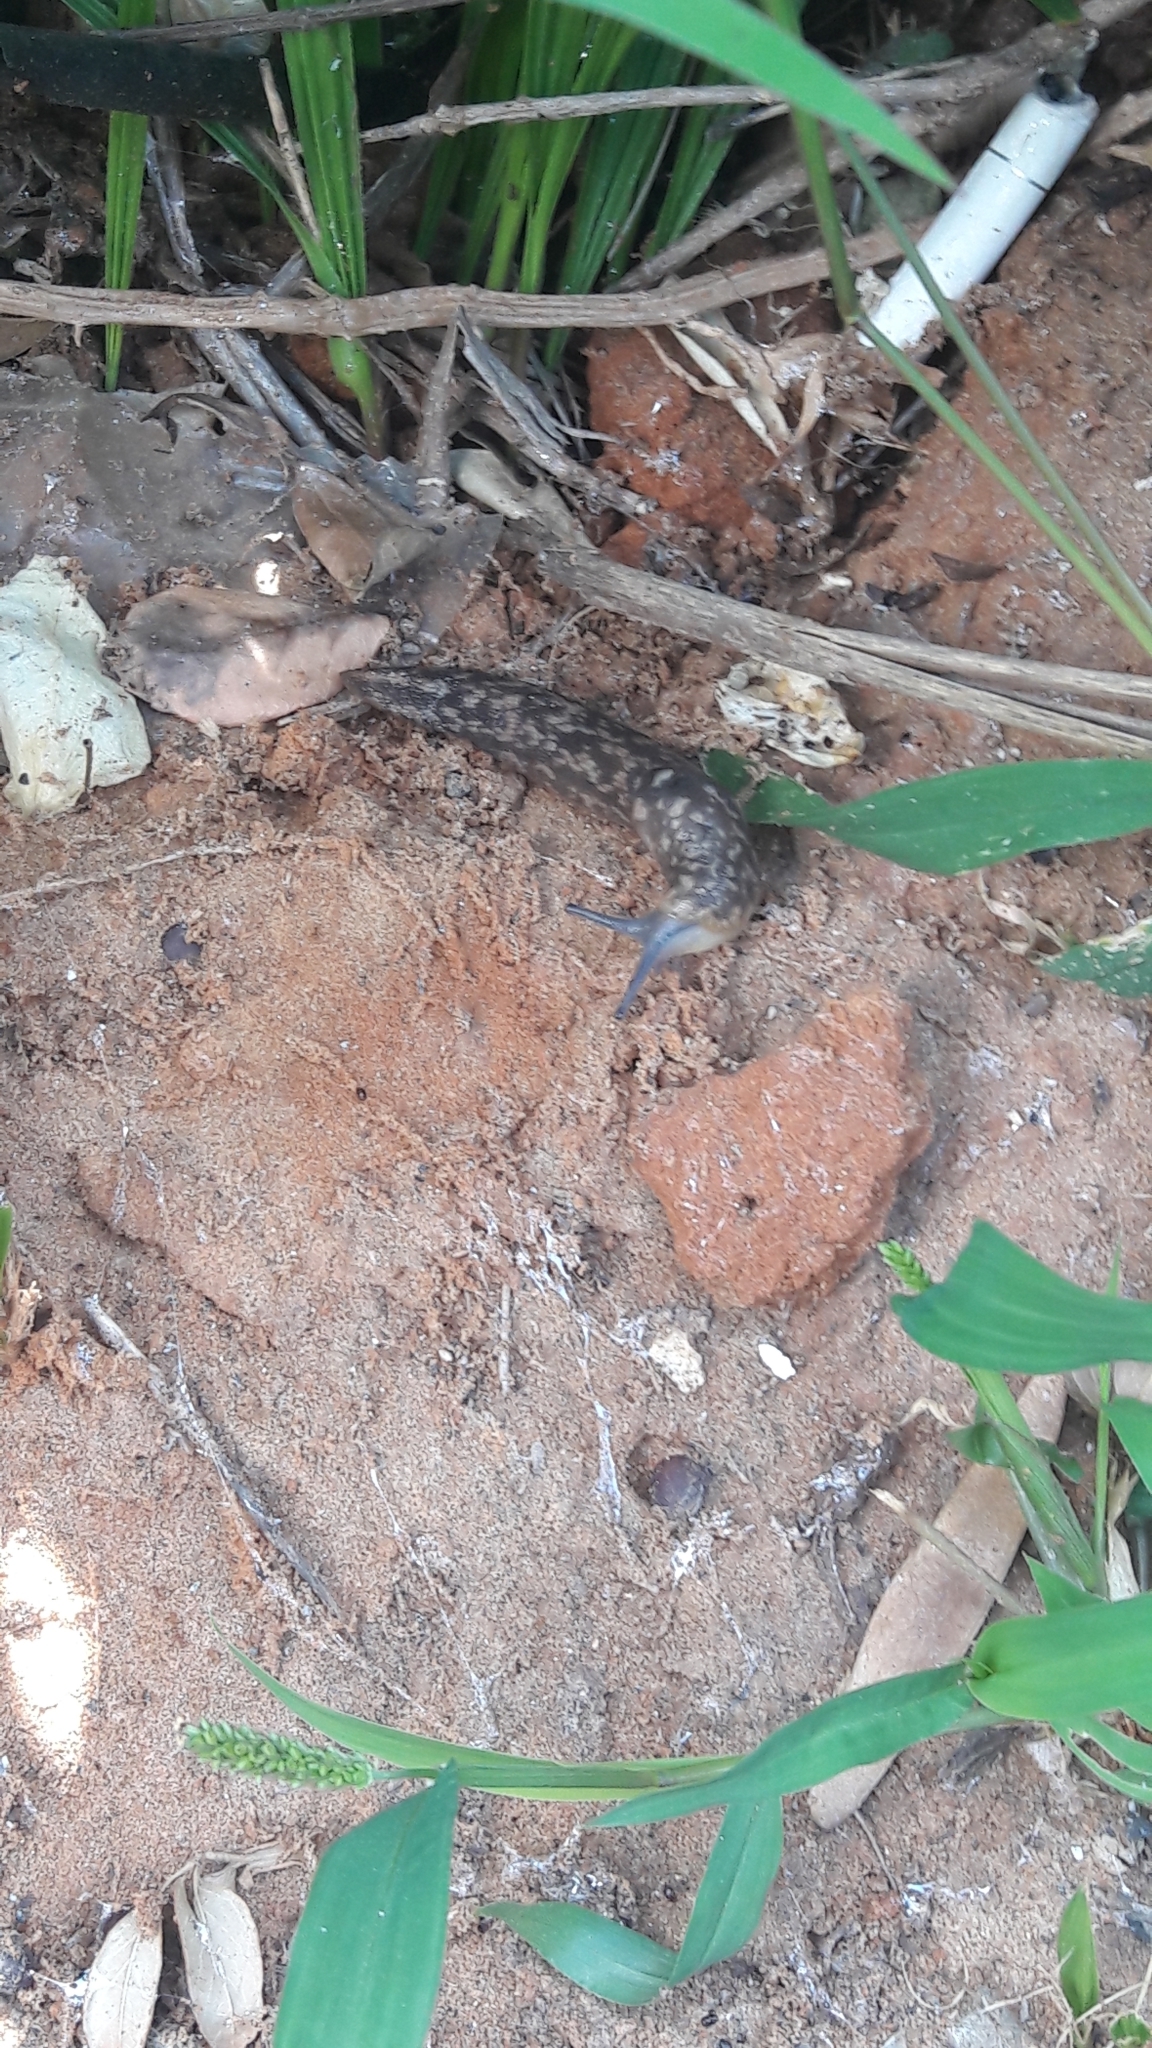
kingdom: Animalia
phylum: Mollusca
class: Gastropoda
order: Stylommatophora
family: Limacidae
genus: Limacus
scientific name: Limacus flavus
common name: Yellow gardenslug
